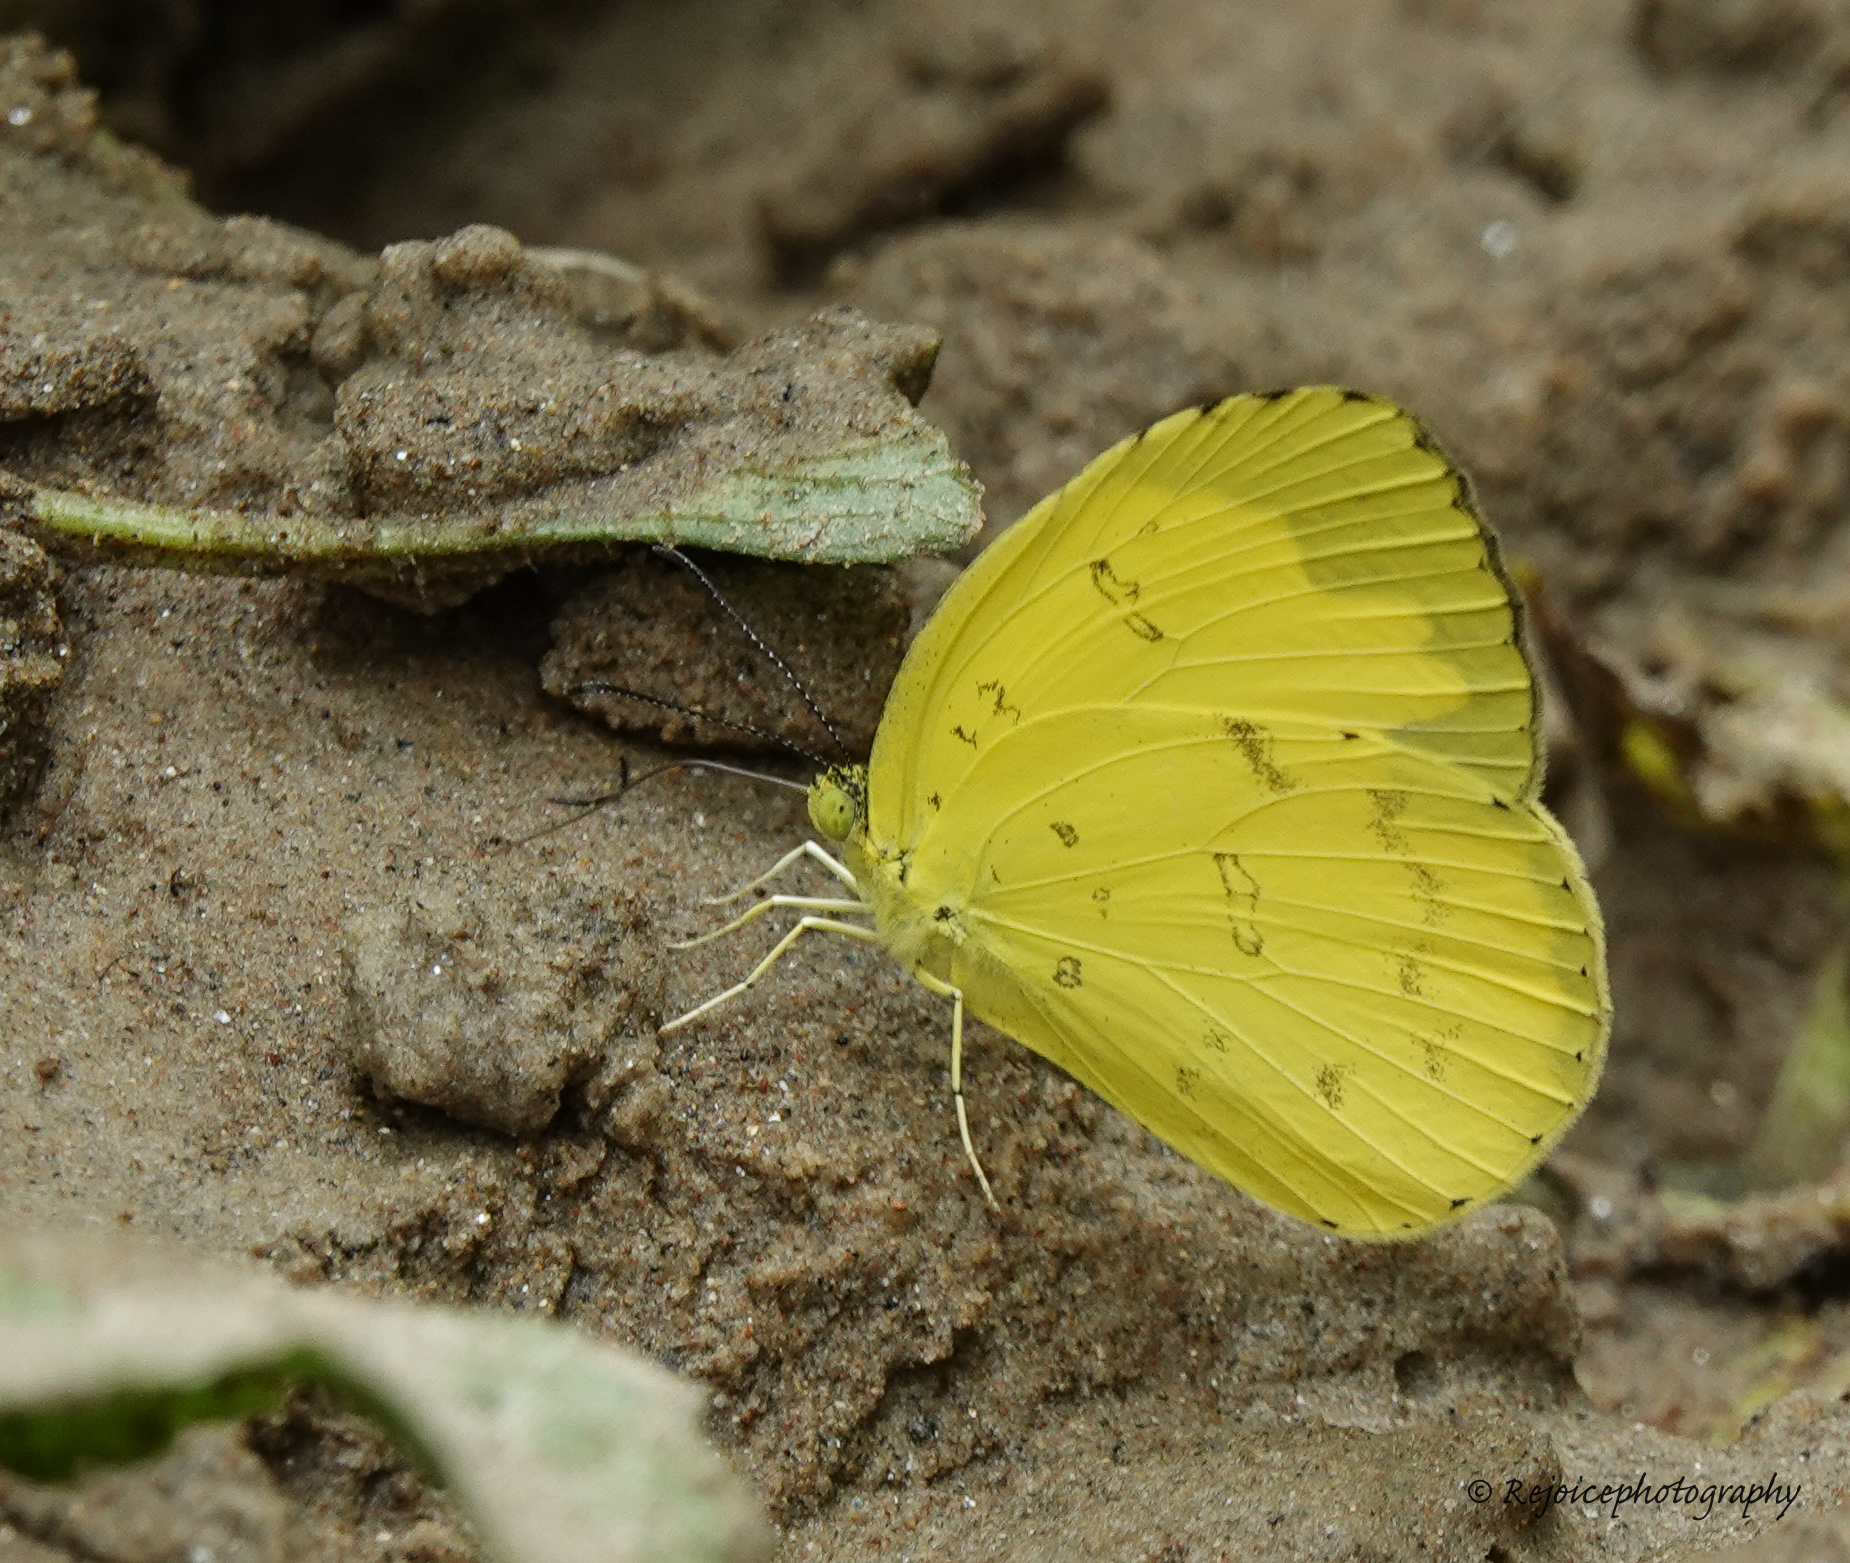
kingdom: Animalia
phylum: Arthropoda
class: Insecta
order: Lepidoptera
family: Pieridae
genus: Eurema
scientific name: Eurema blanda
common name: Three-spot grass yellow
